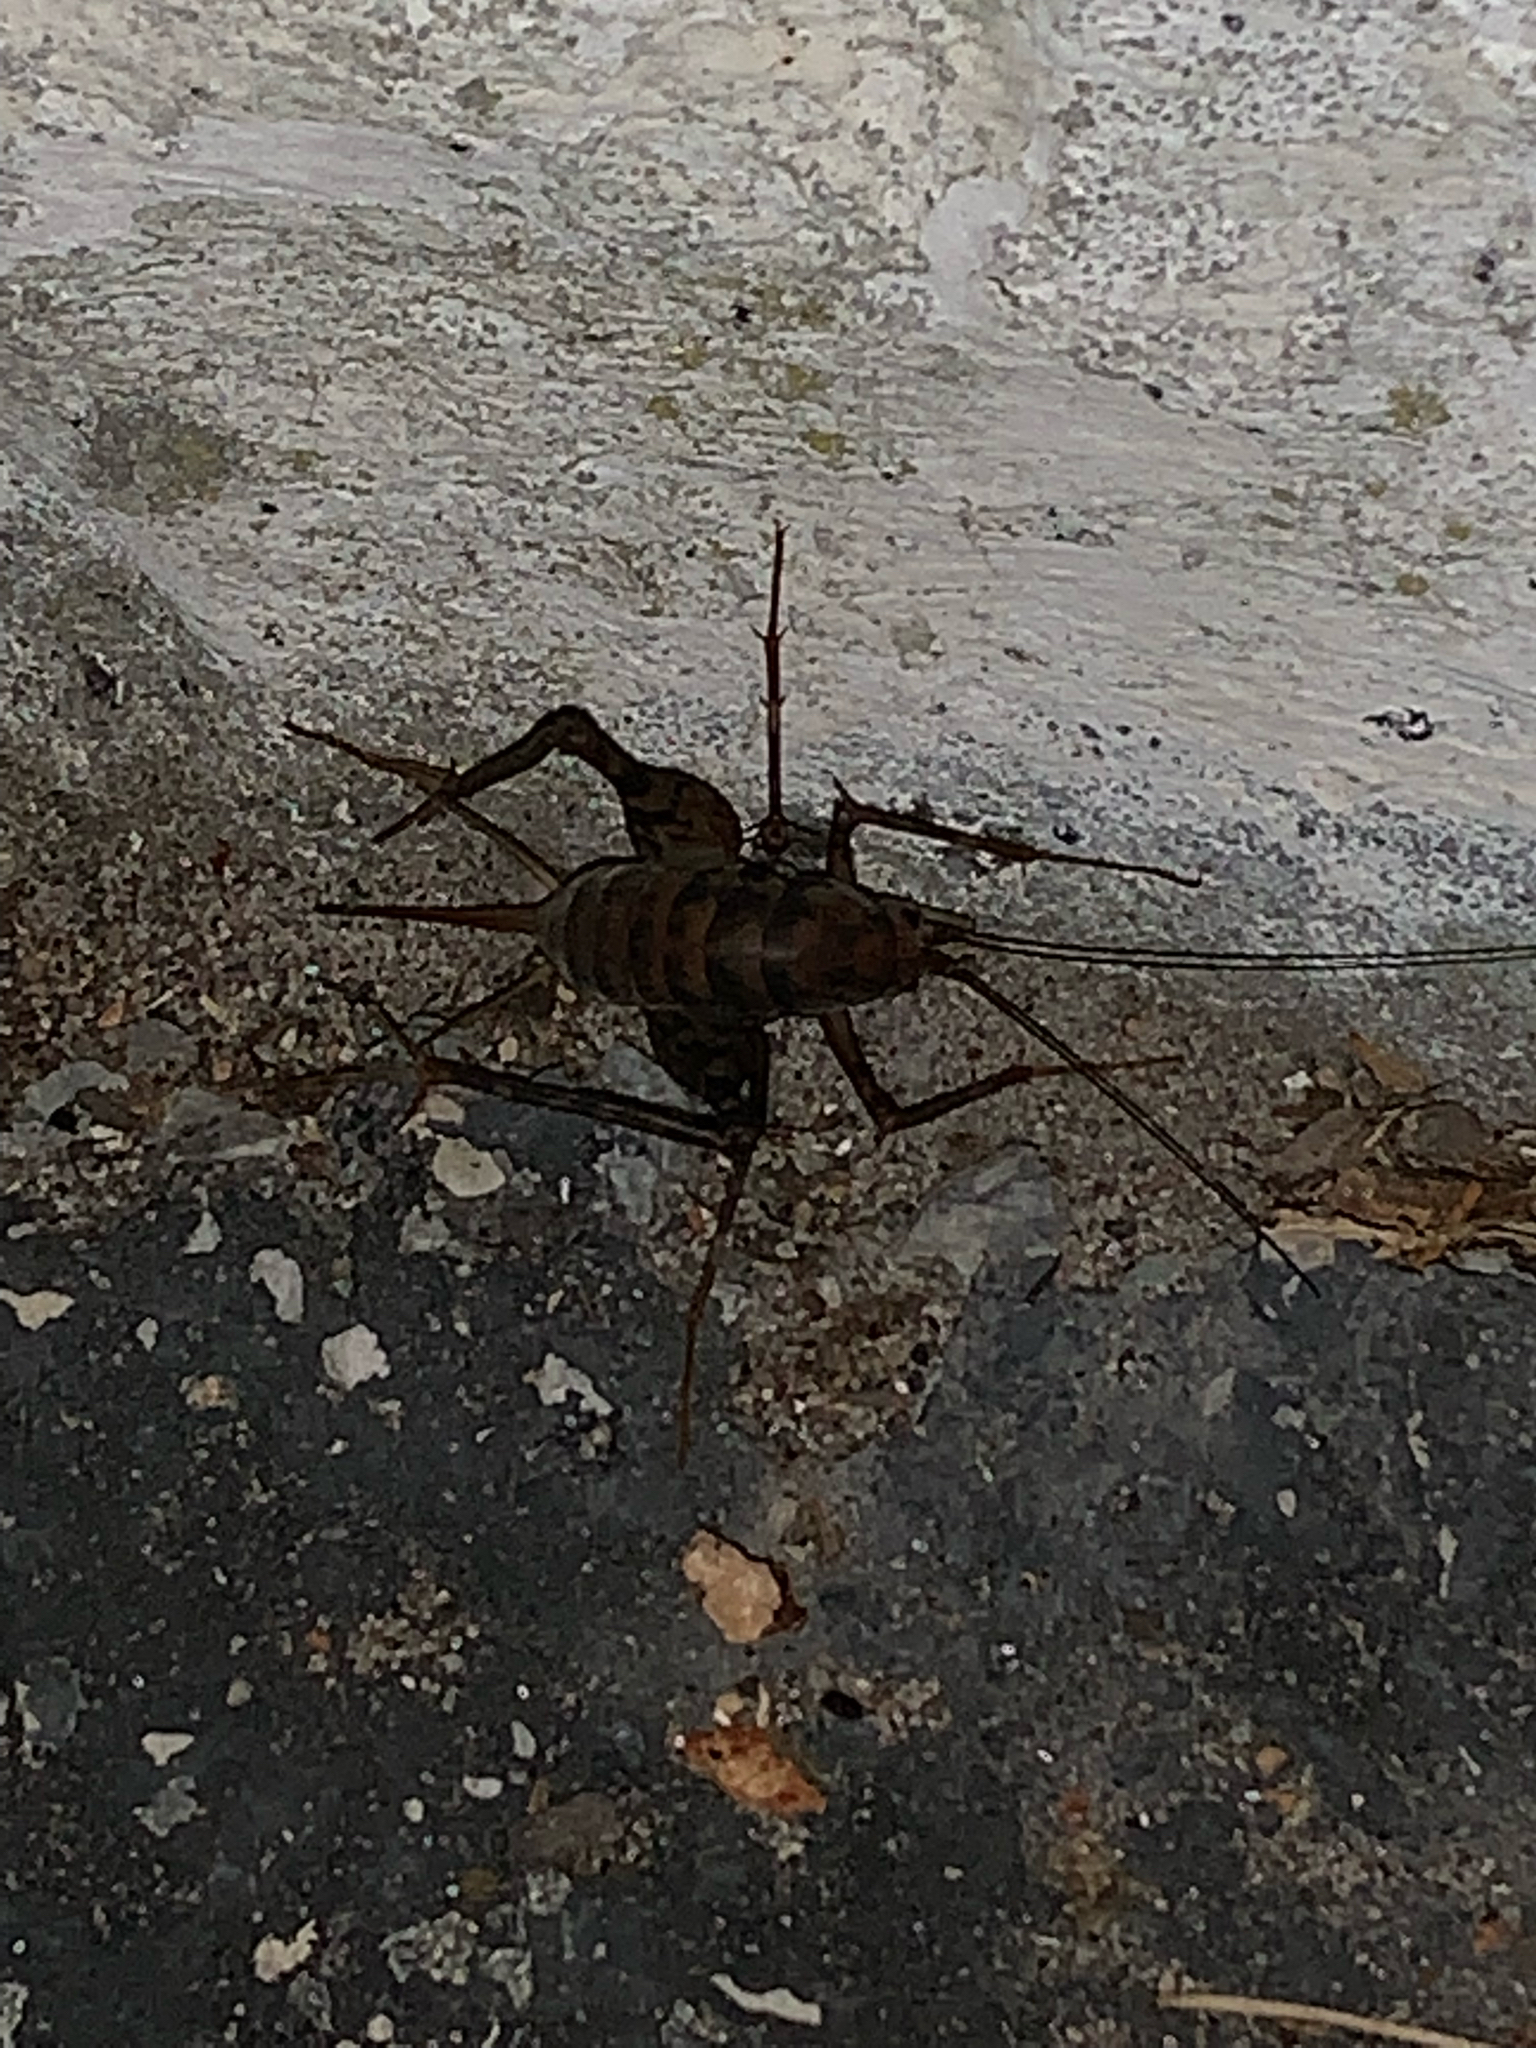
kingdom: Animalia
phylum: Arthropoda
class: Insecta
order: Orthoptera
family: Rhaphidophoridae
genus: Tachycines
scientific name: Tachycines asynamorus
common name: Greenhouse camel cricket
